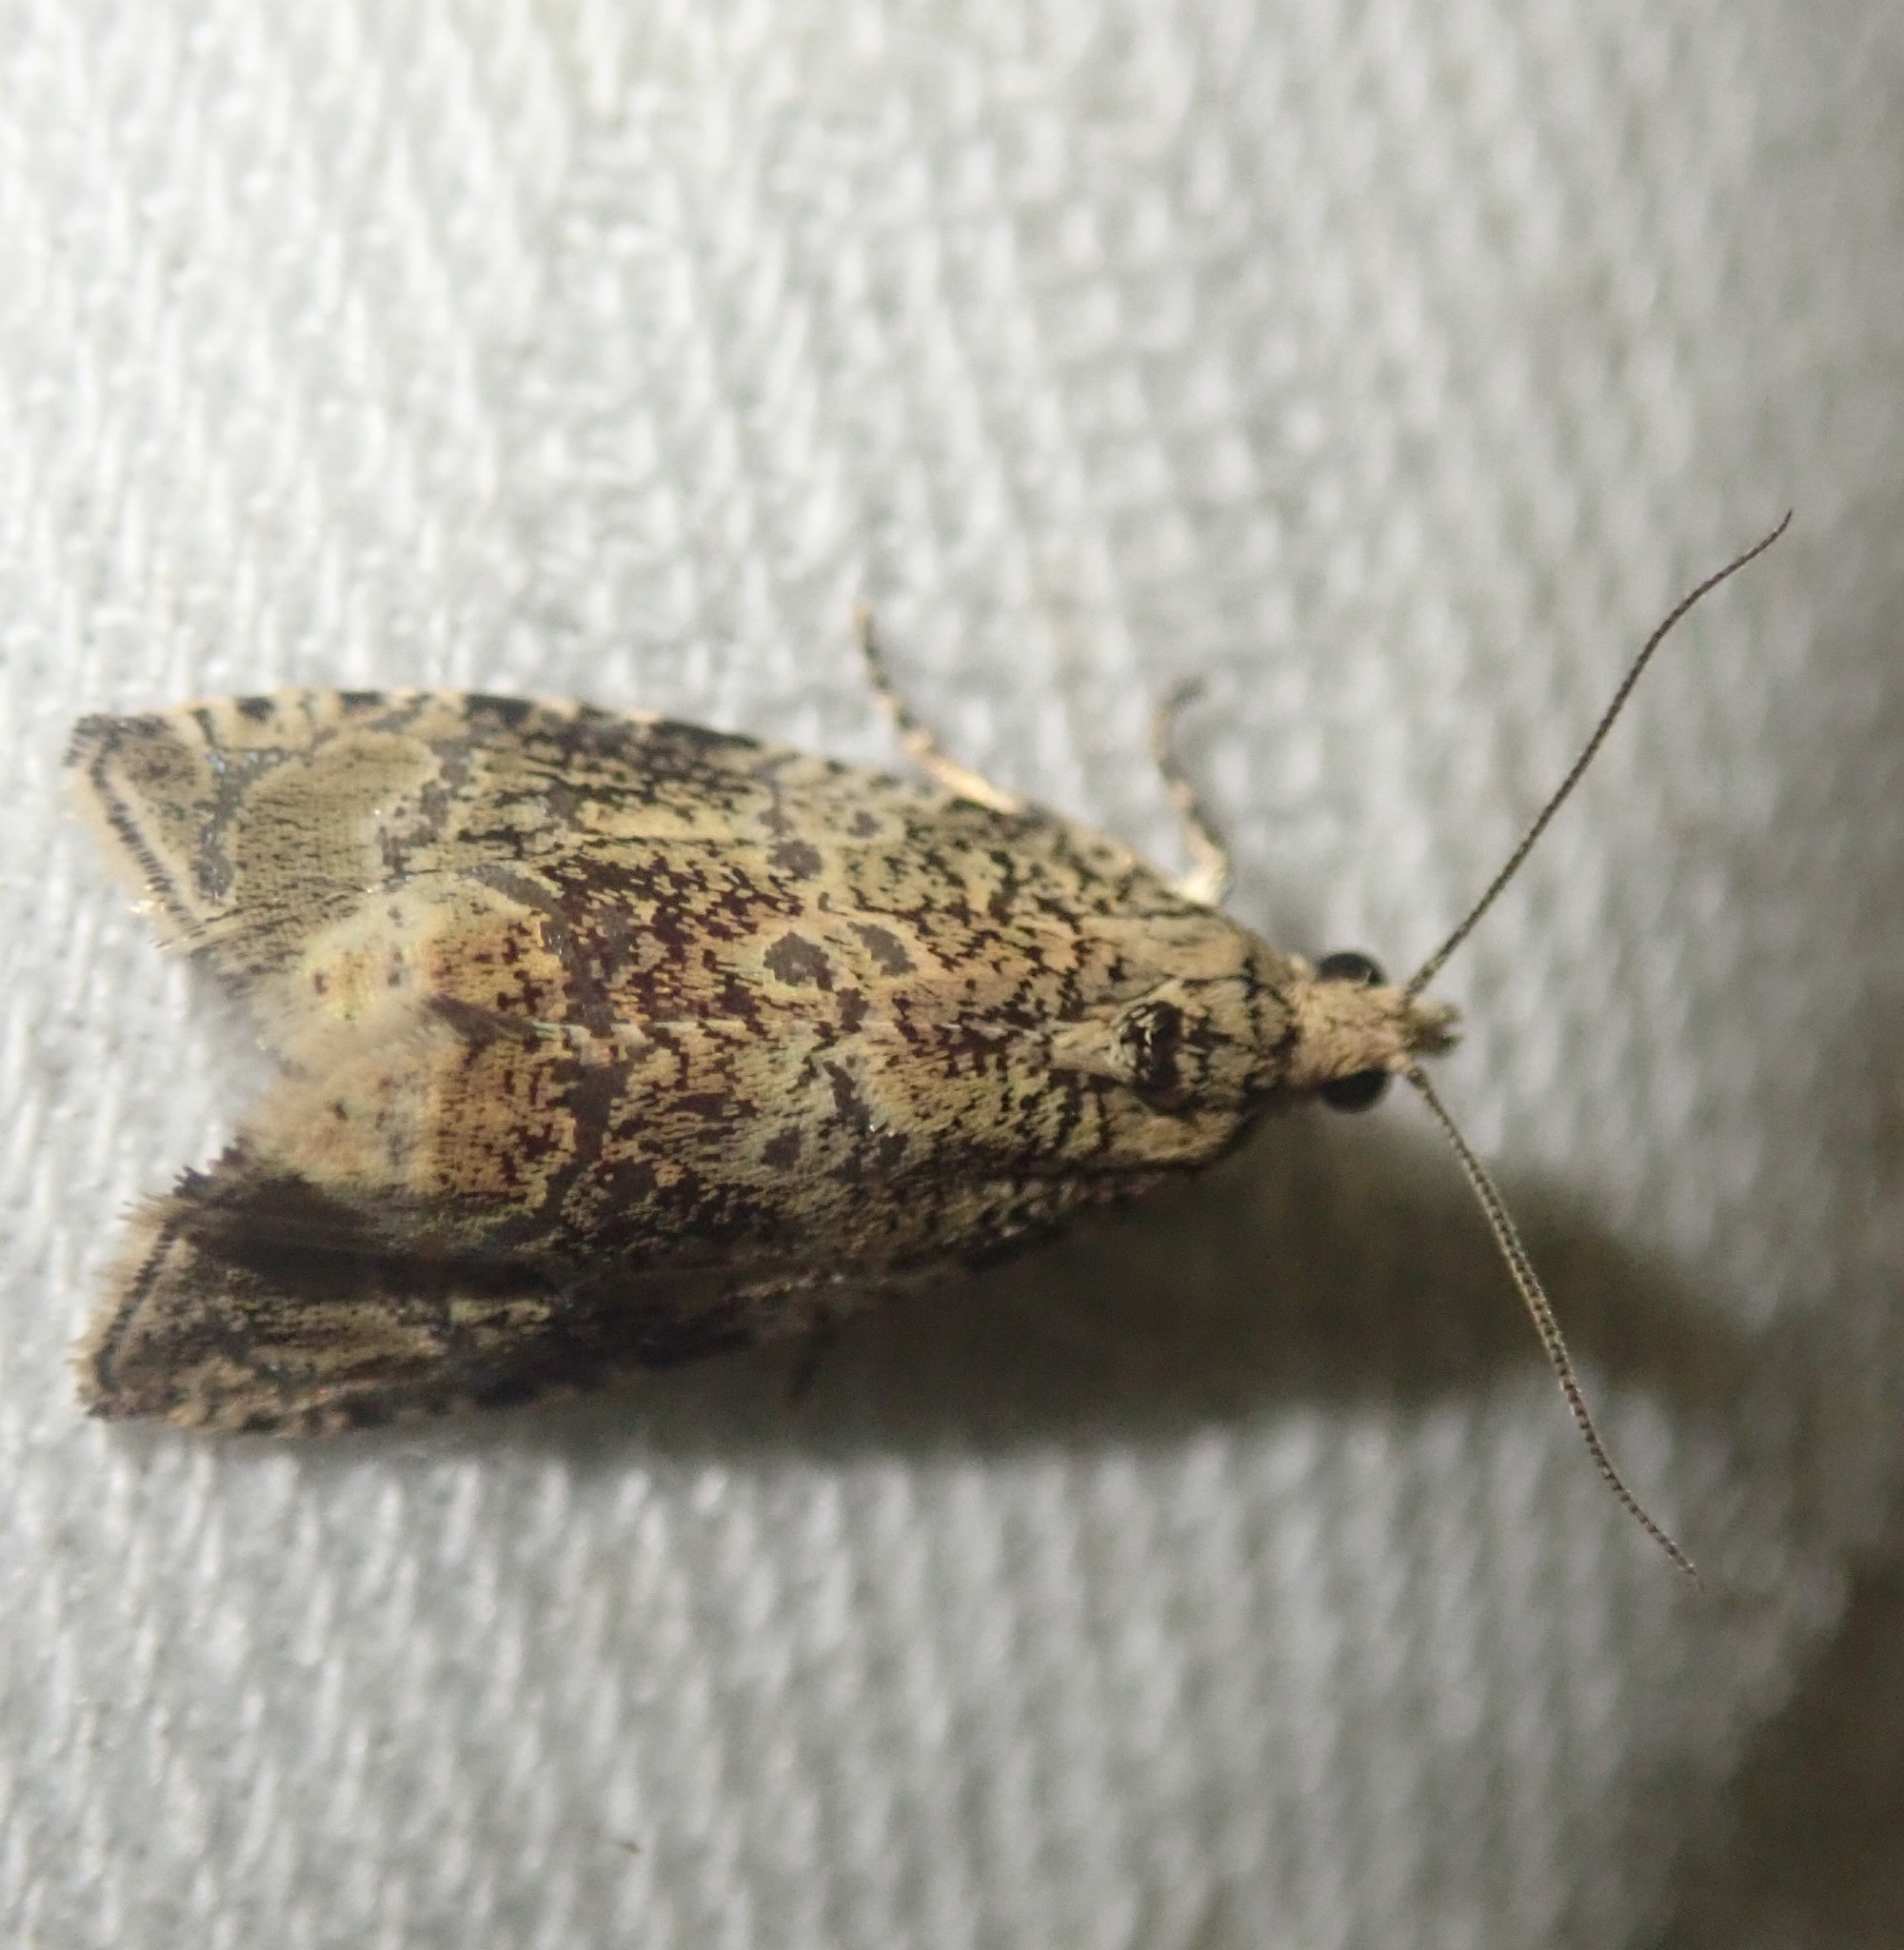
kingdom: Animalia
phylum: Arthropoda
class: Insecta
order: Lepidoptera
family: Tortricidae
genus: Syricoris
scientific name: Syricoris lacunana
